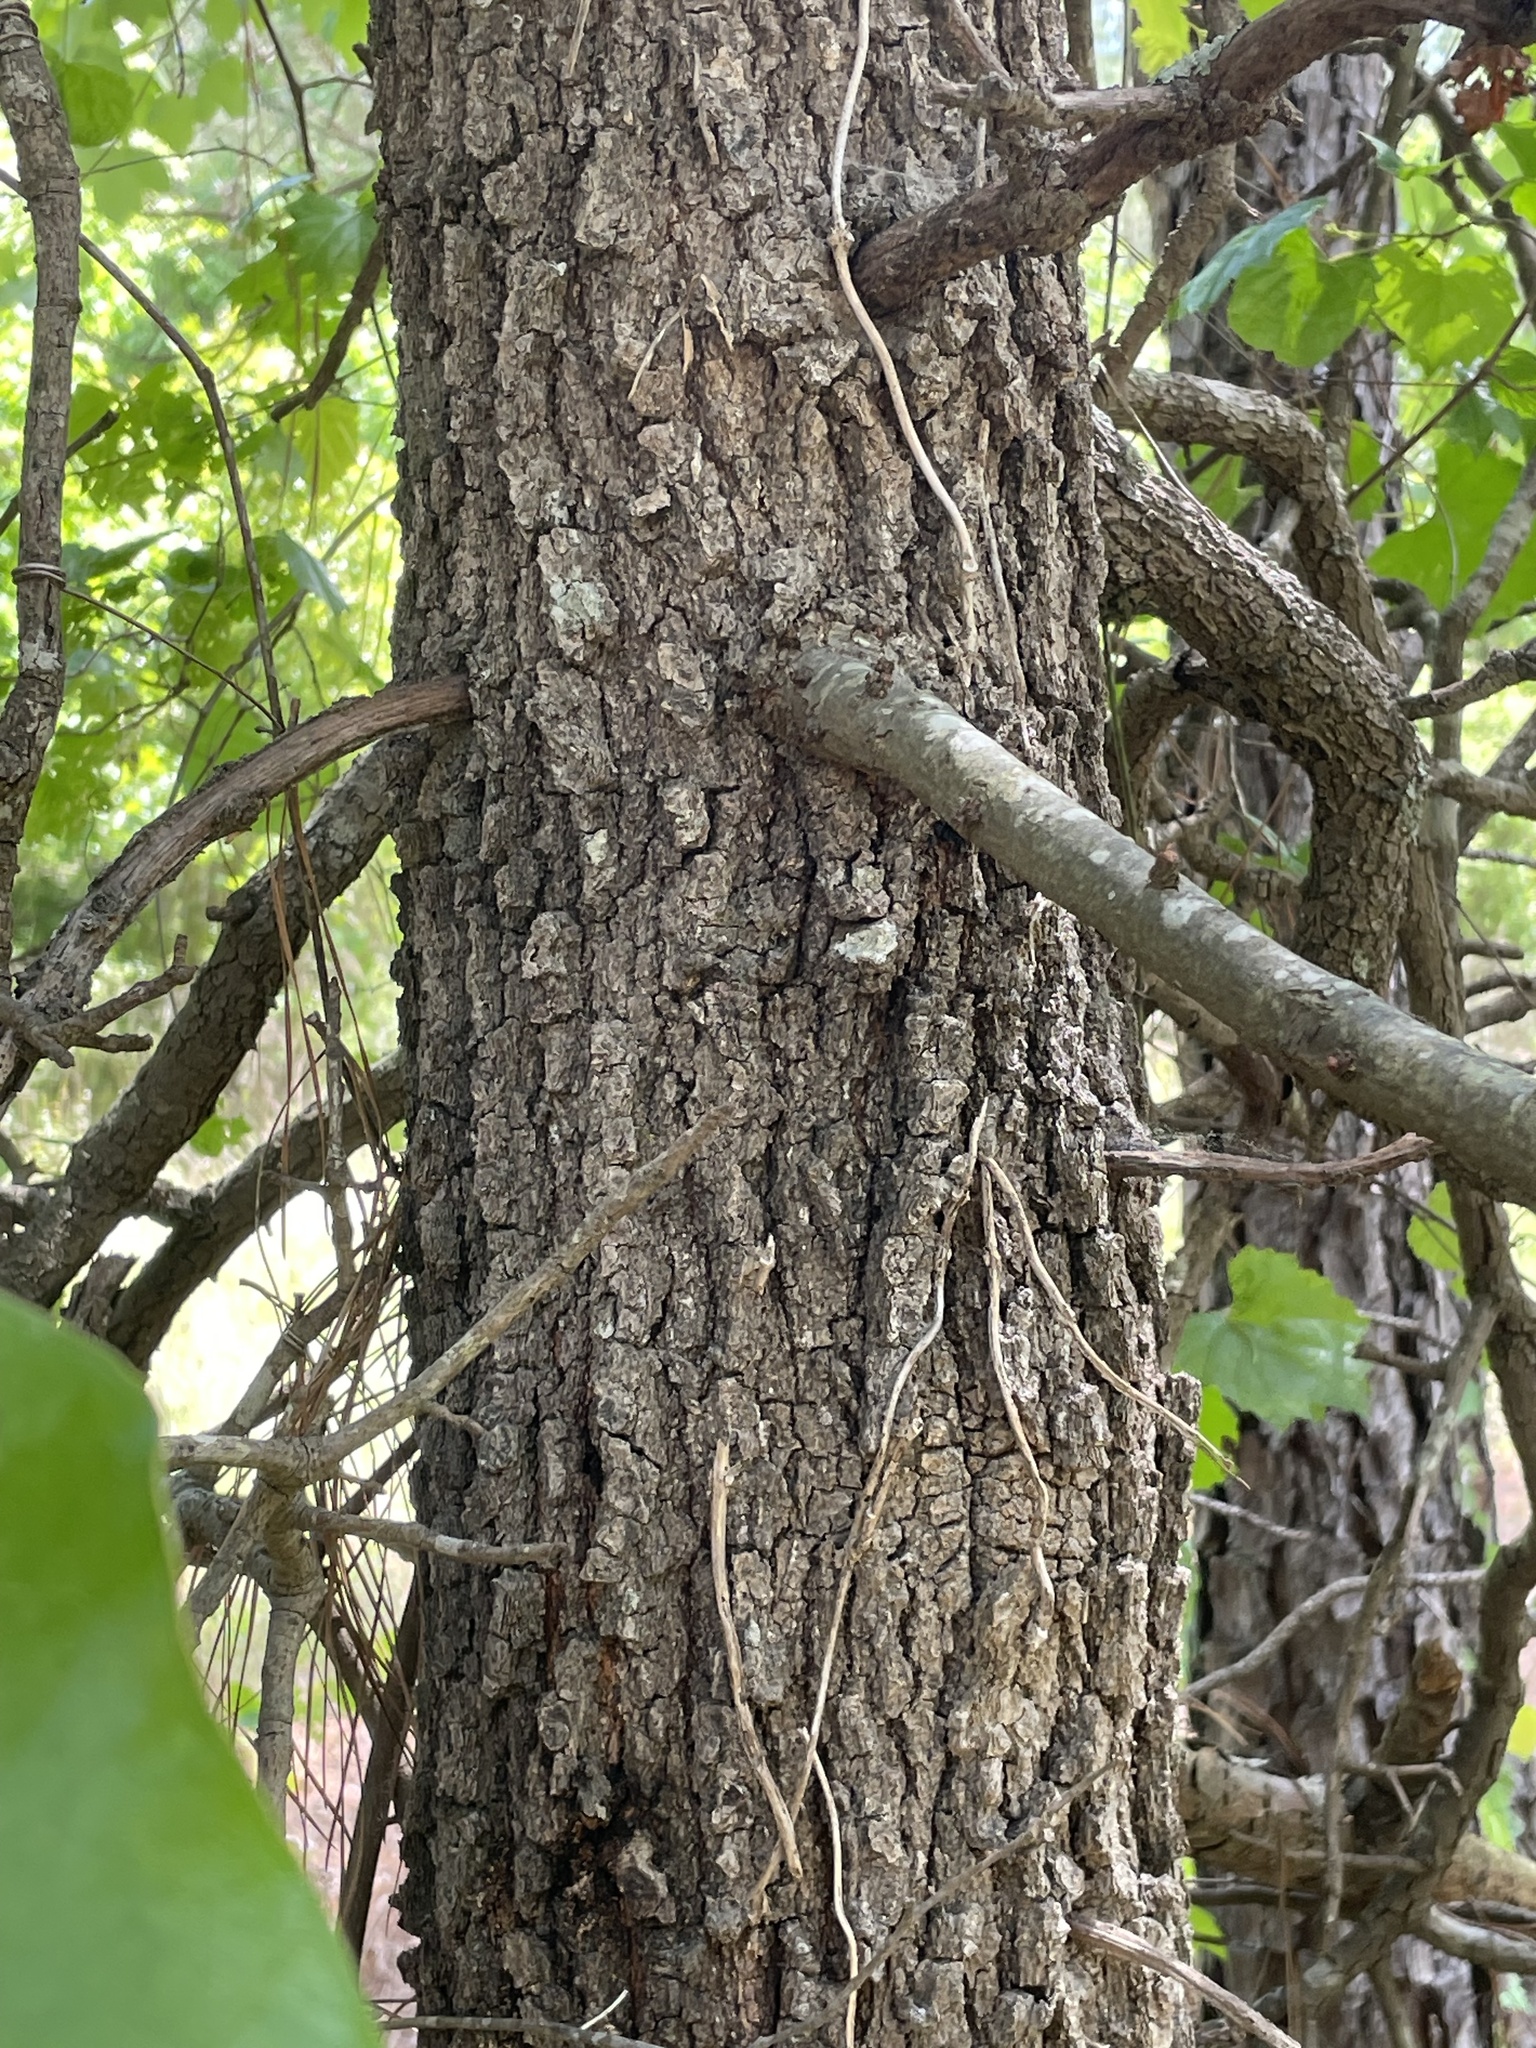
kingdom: Plantae
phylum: Tracheophyta
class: Magnoliopsida
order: Fagales
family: Fagaceae
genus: Quercus
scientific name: Quercus marilandica
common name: Blackjack oak
